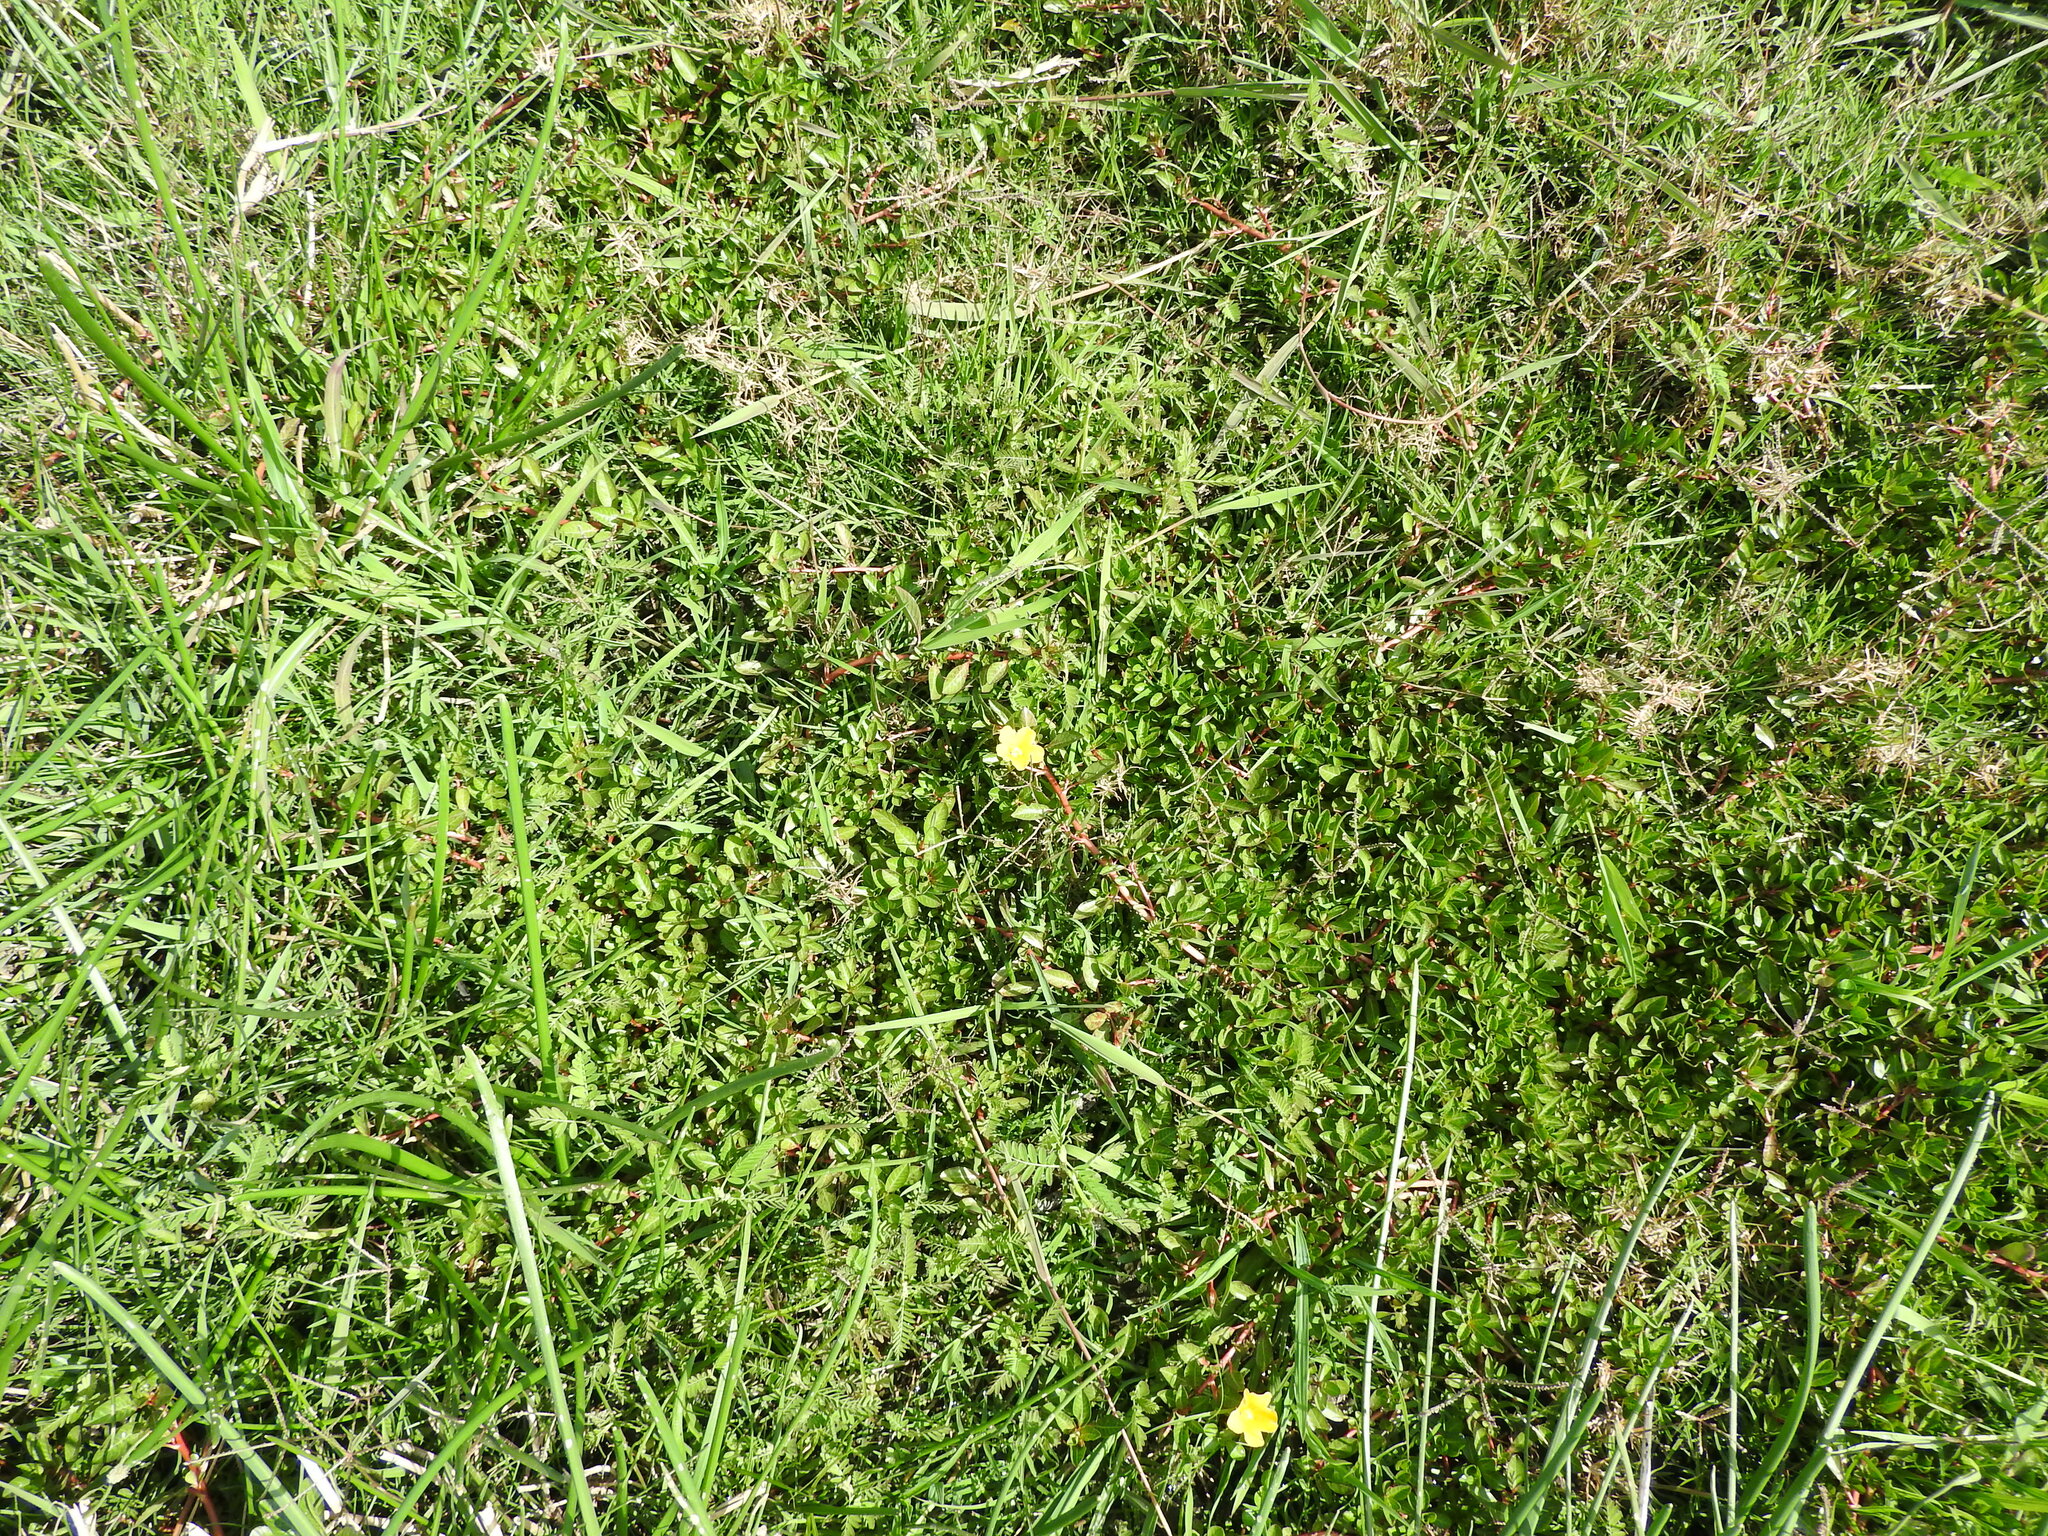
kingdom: Plantae
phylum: Tracheophyta
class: Magnoliopsida
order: Myrtales
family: Onagraceae
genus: Ludwigia
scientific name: Ludwigia peploides
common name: Floating primrose-willow
